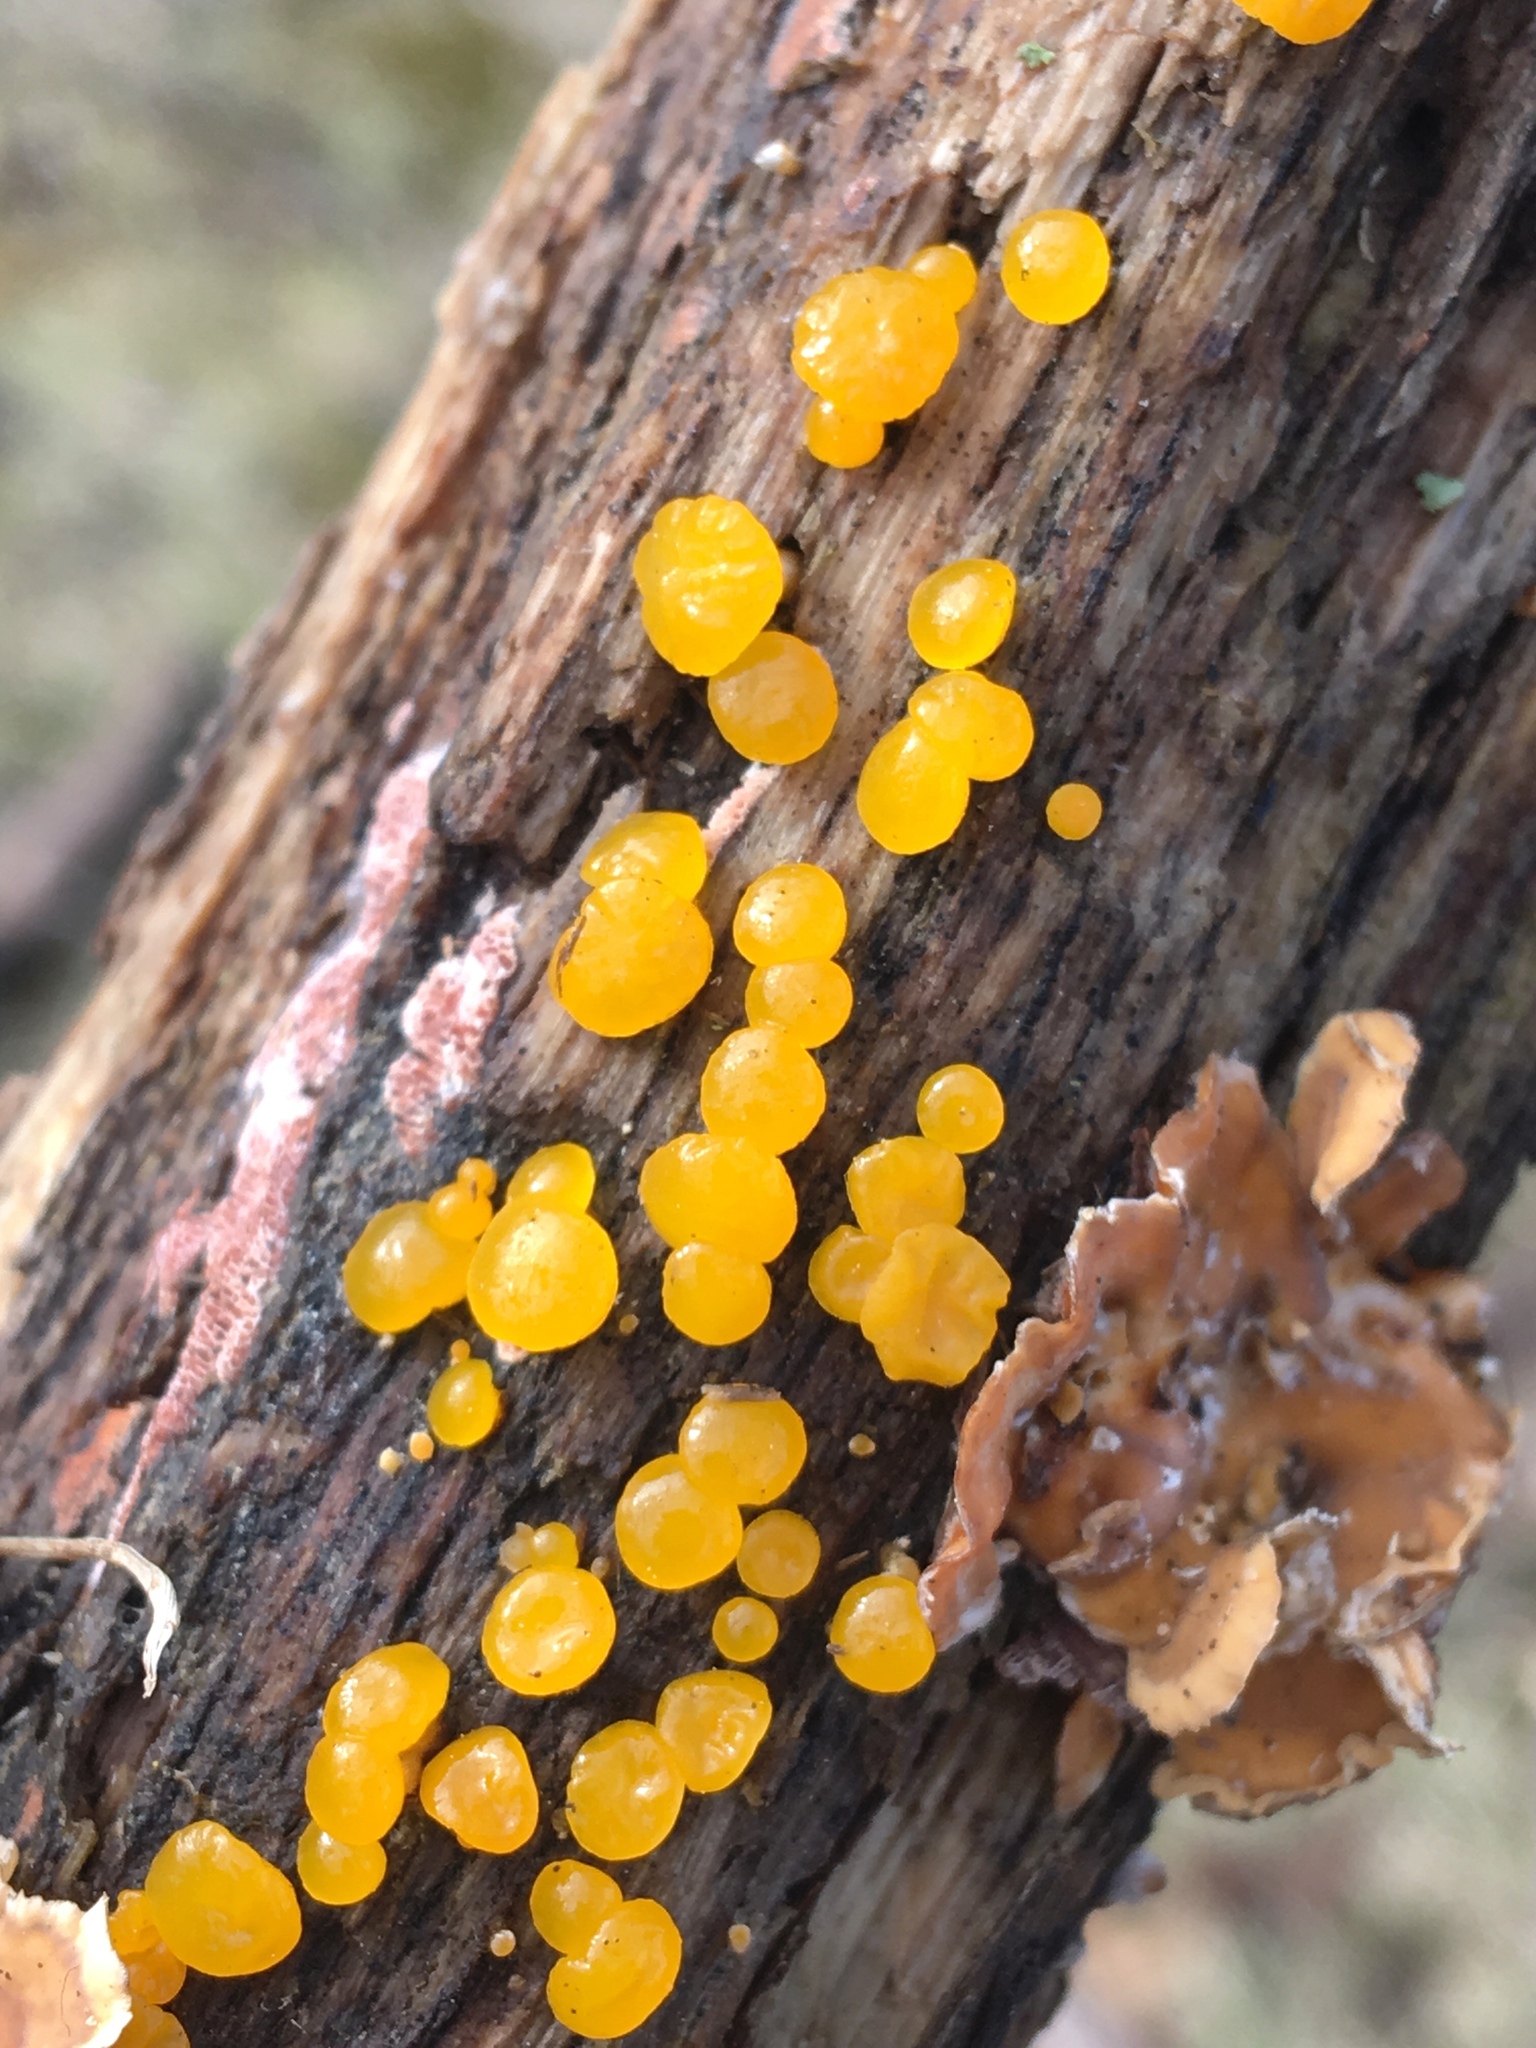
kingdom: Fungi
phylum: Basidiomycota
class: Dacrymycetes
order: Dacrymycetales
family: Dacrymycetaceae
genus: Dacrymyces
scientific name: Dacrymyces capitatus
